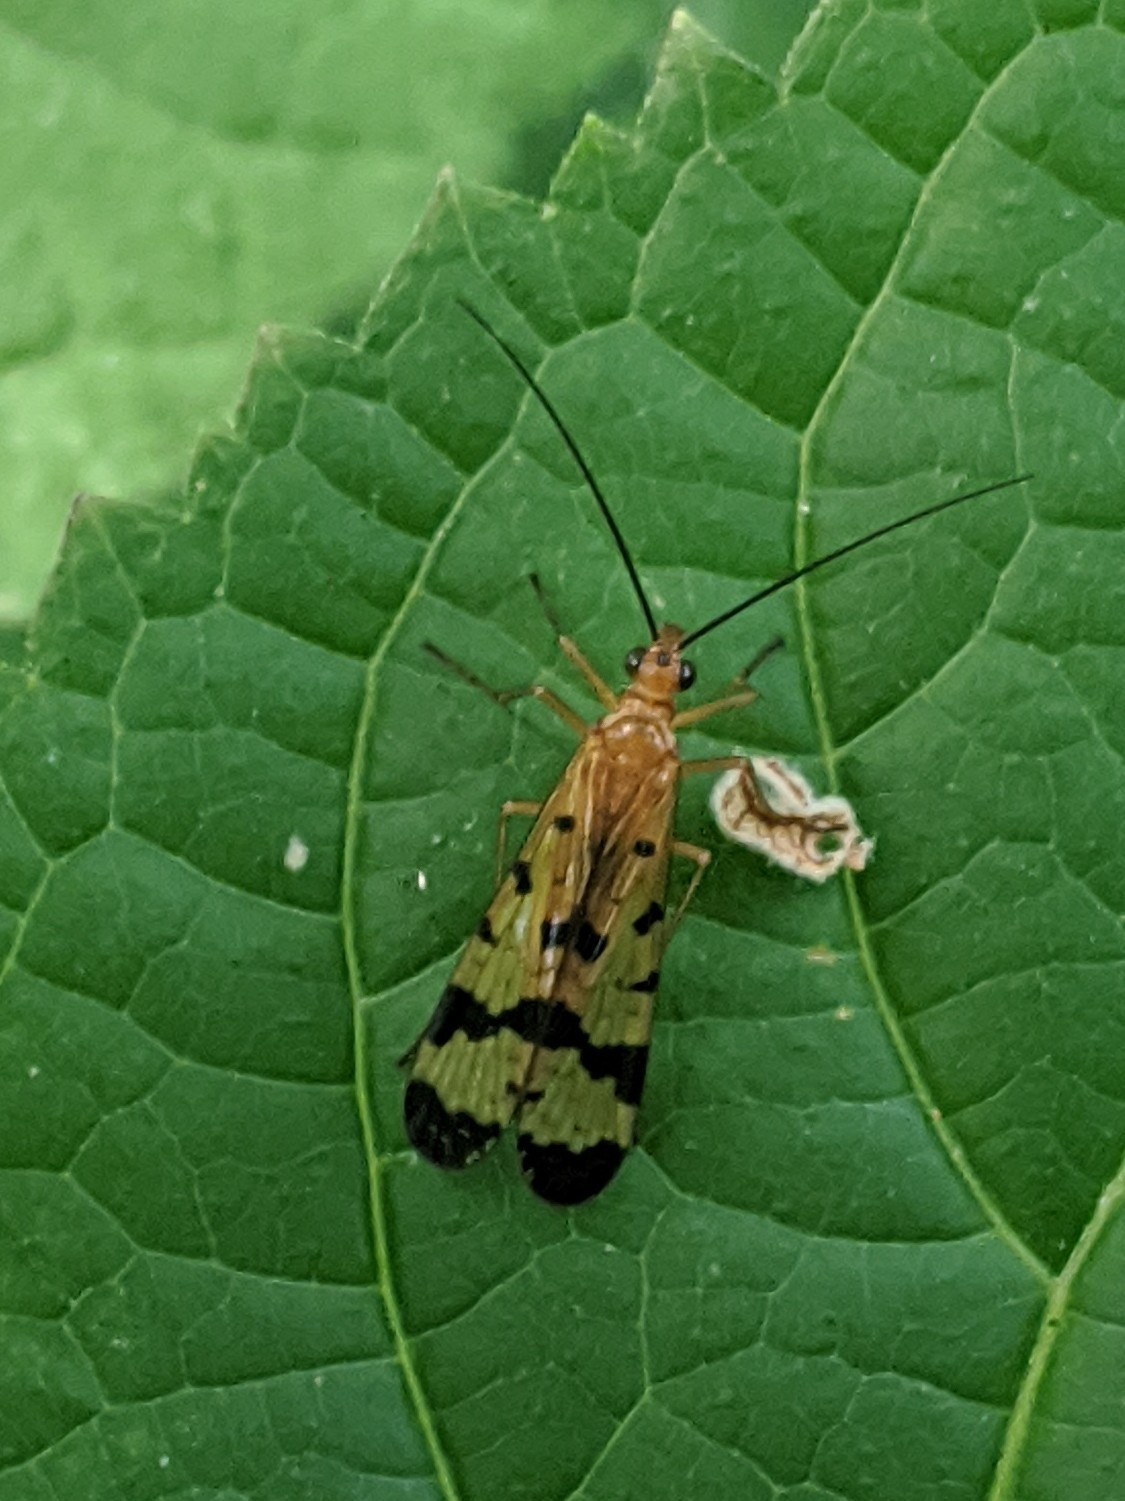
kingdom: Animalia
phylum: Arthropoda
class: Insecta
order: Mecoptera
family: Panorpidae
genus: Panorpa
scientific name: Panorpa debilis
